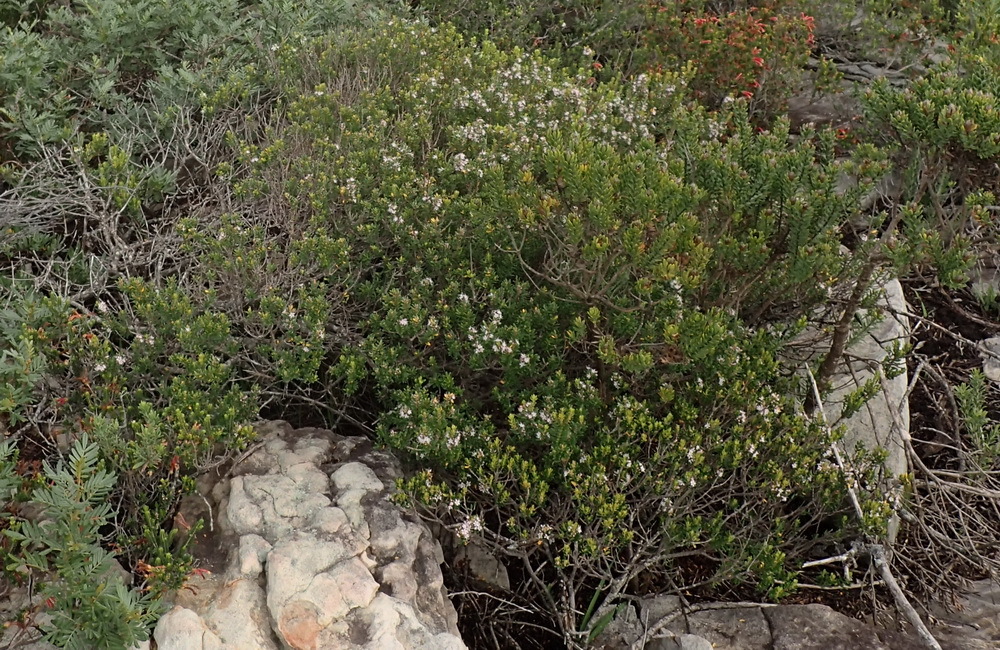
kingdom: Plantae
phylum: Tracheophyta
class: Magnoliopsida
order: Sapindales
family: Rutaceae
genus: Agathosma
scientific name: Agathosma ovata
